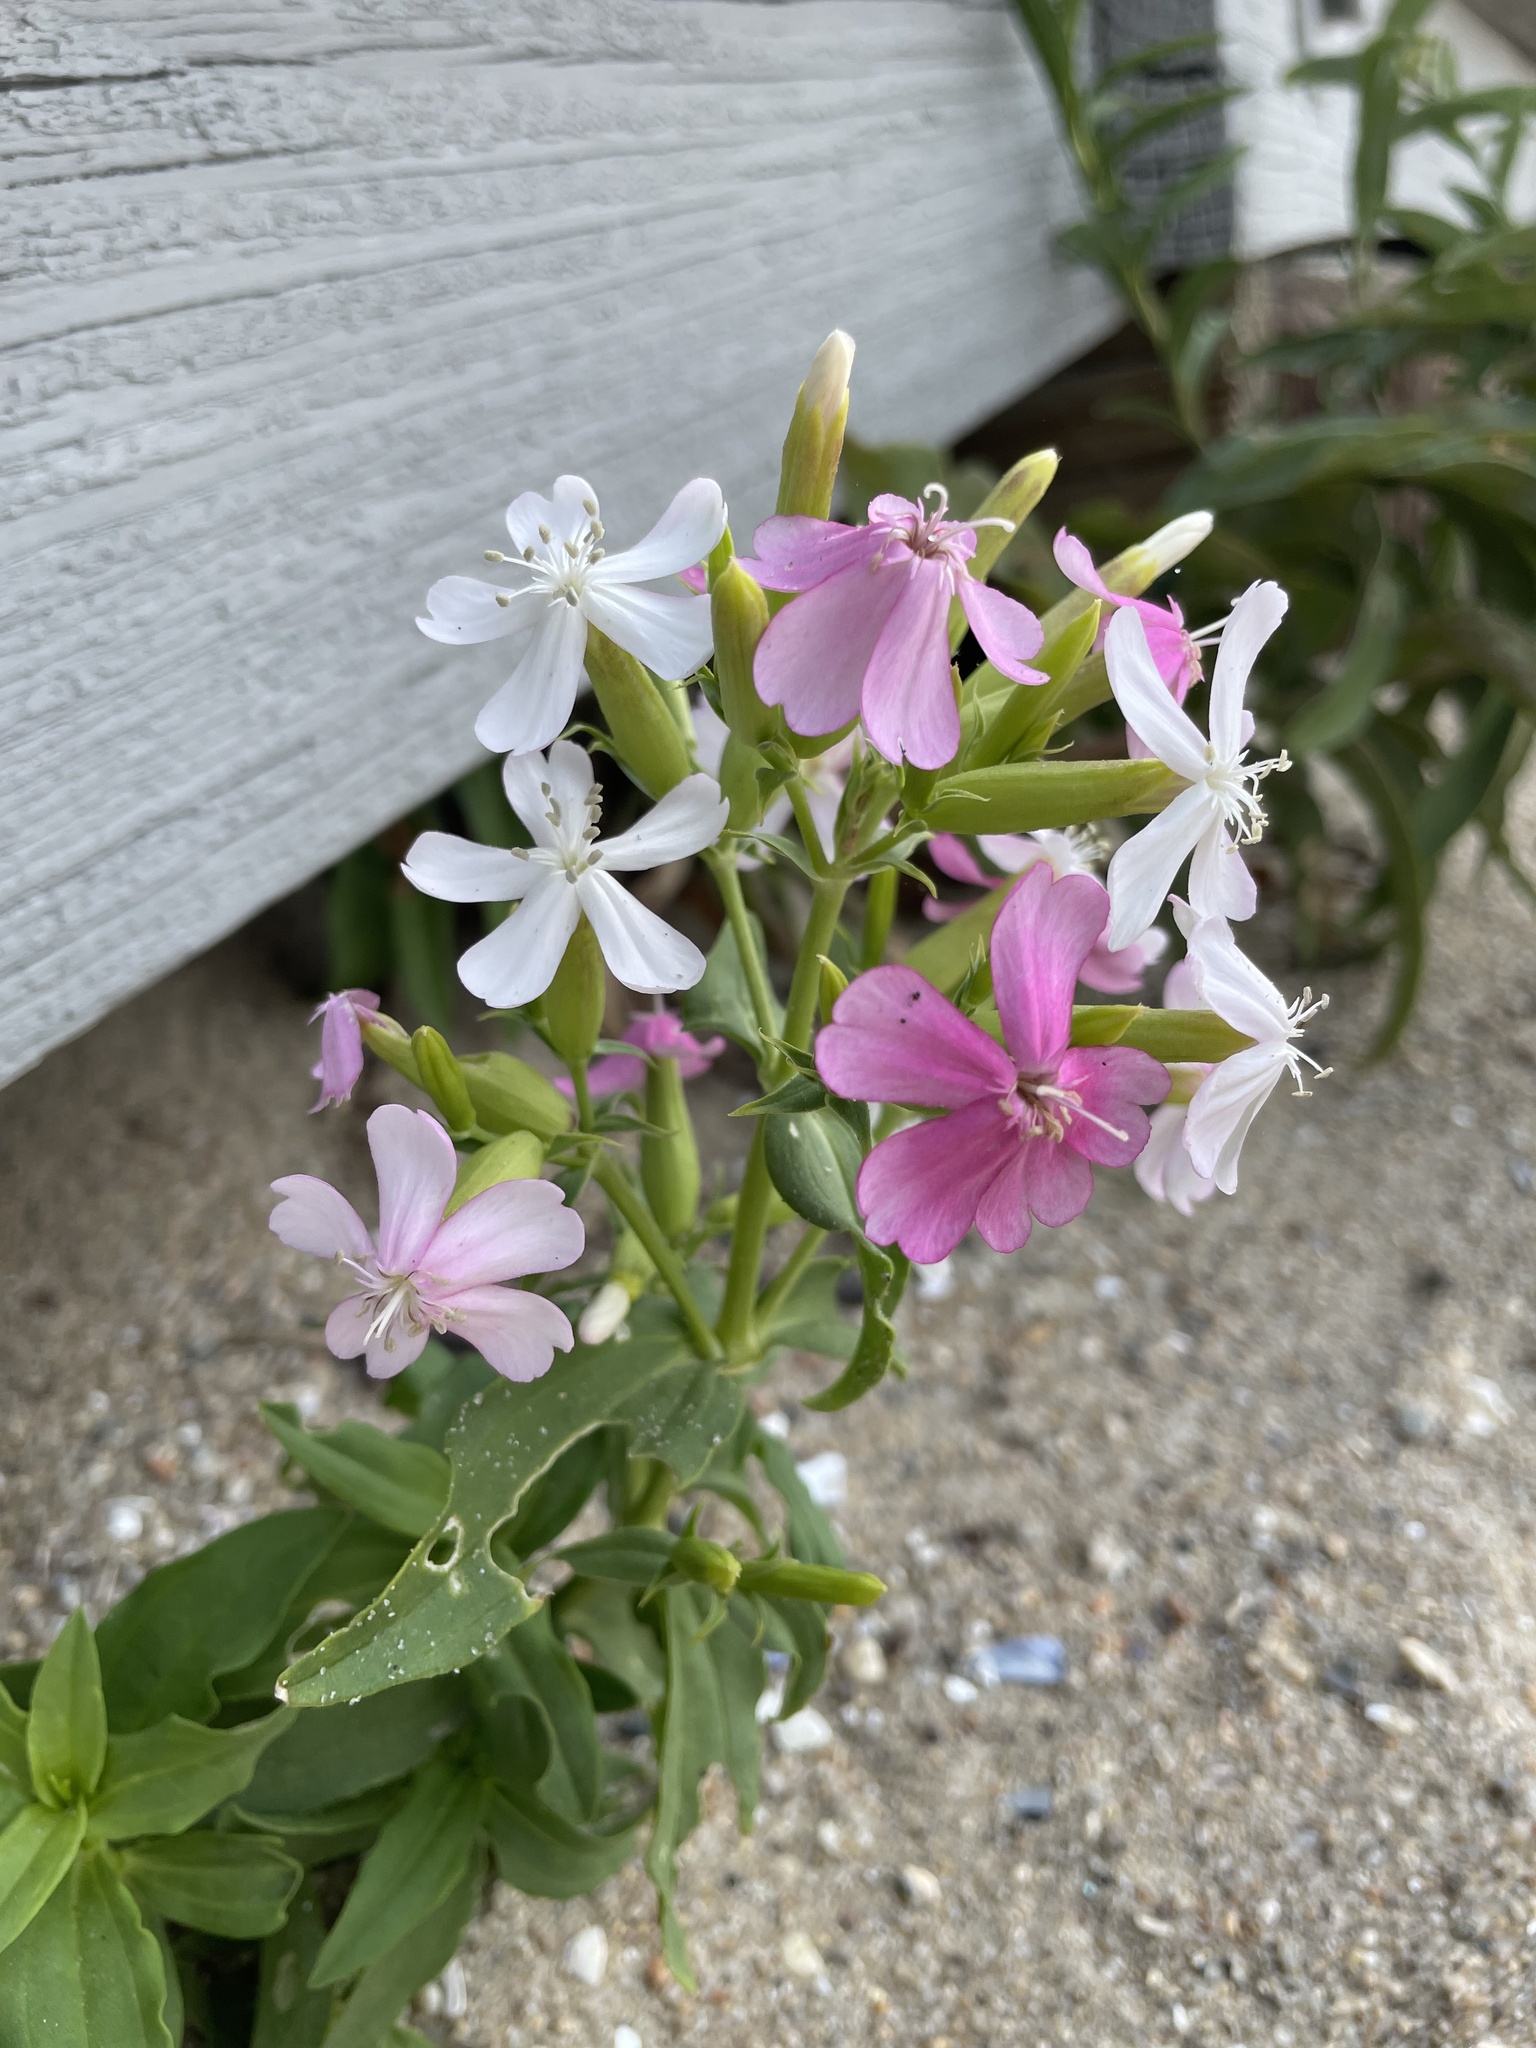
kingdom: Plantae
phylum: Tracheophyta
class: Magnoliopsida
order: Caryophyllales
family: Caryophyllaceae
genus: Saponaria
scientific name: Saponaria officinalis
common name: Soapwort
